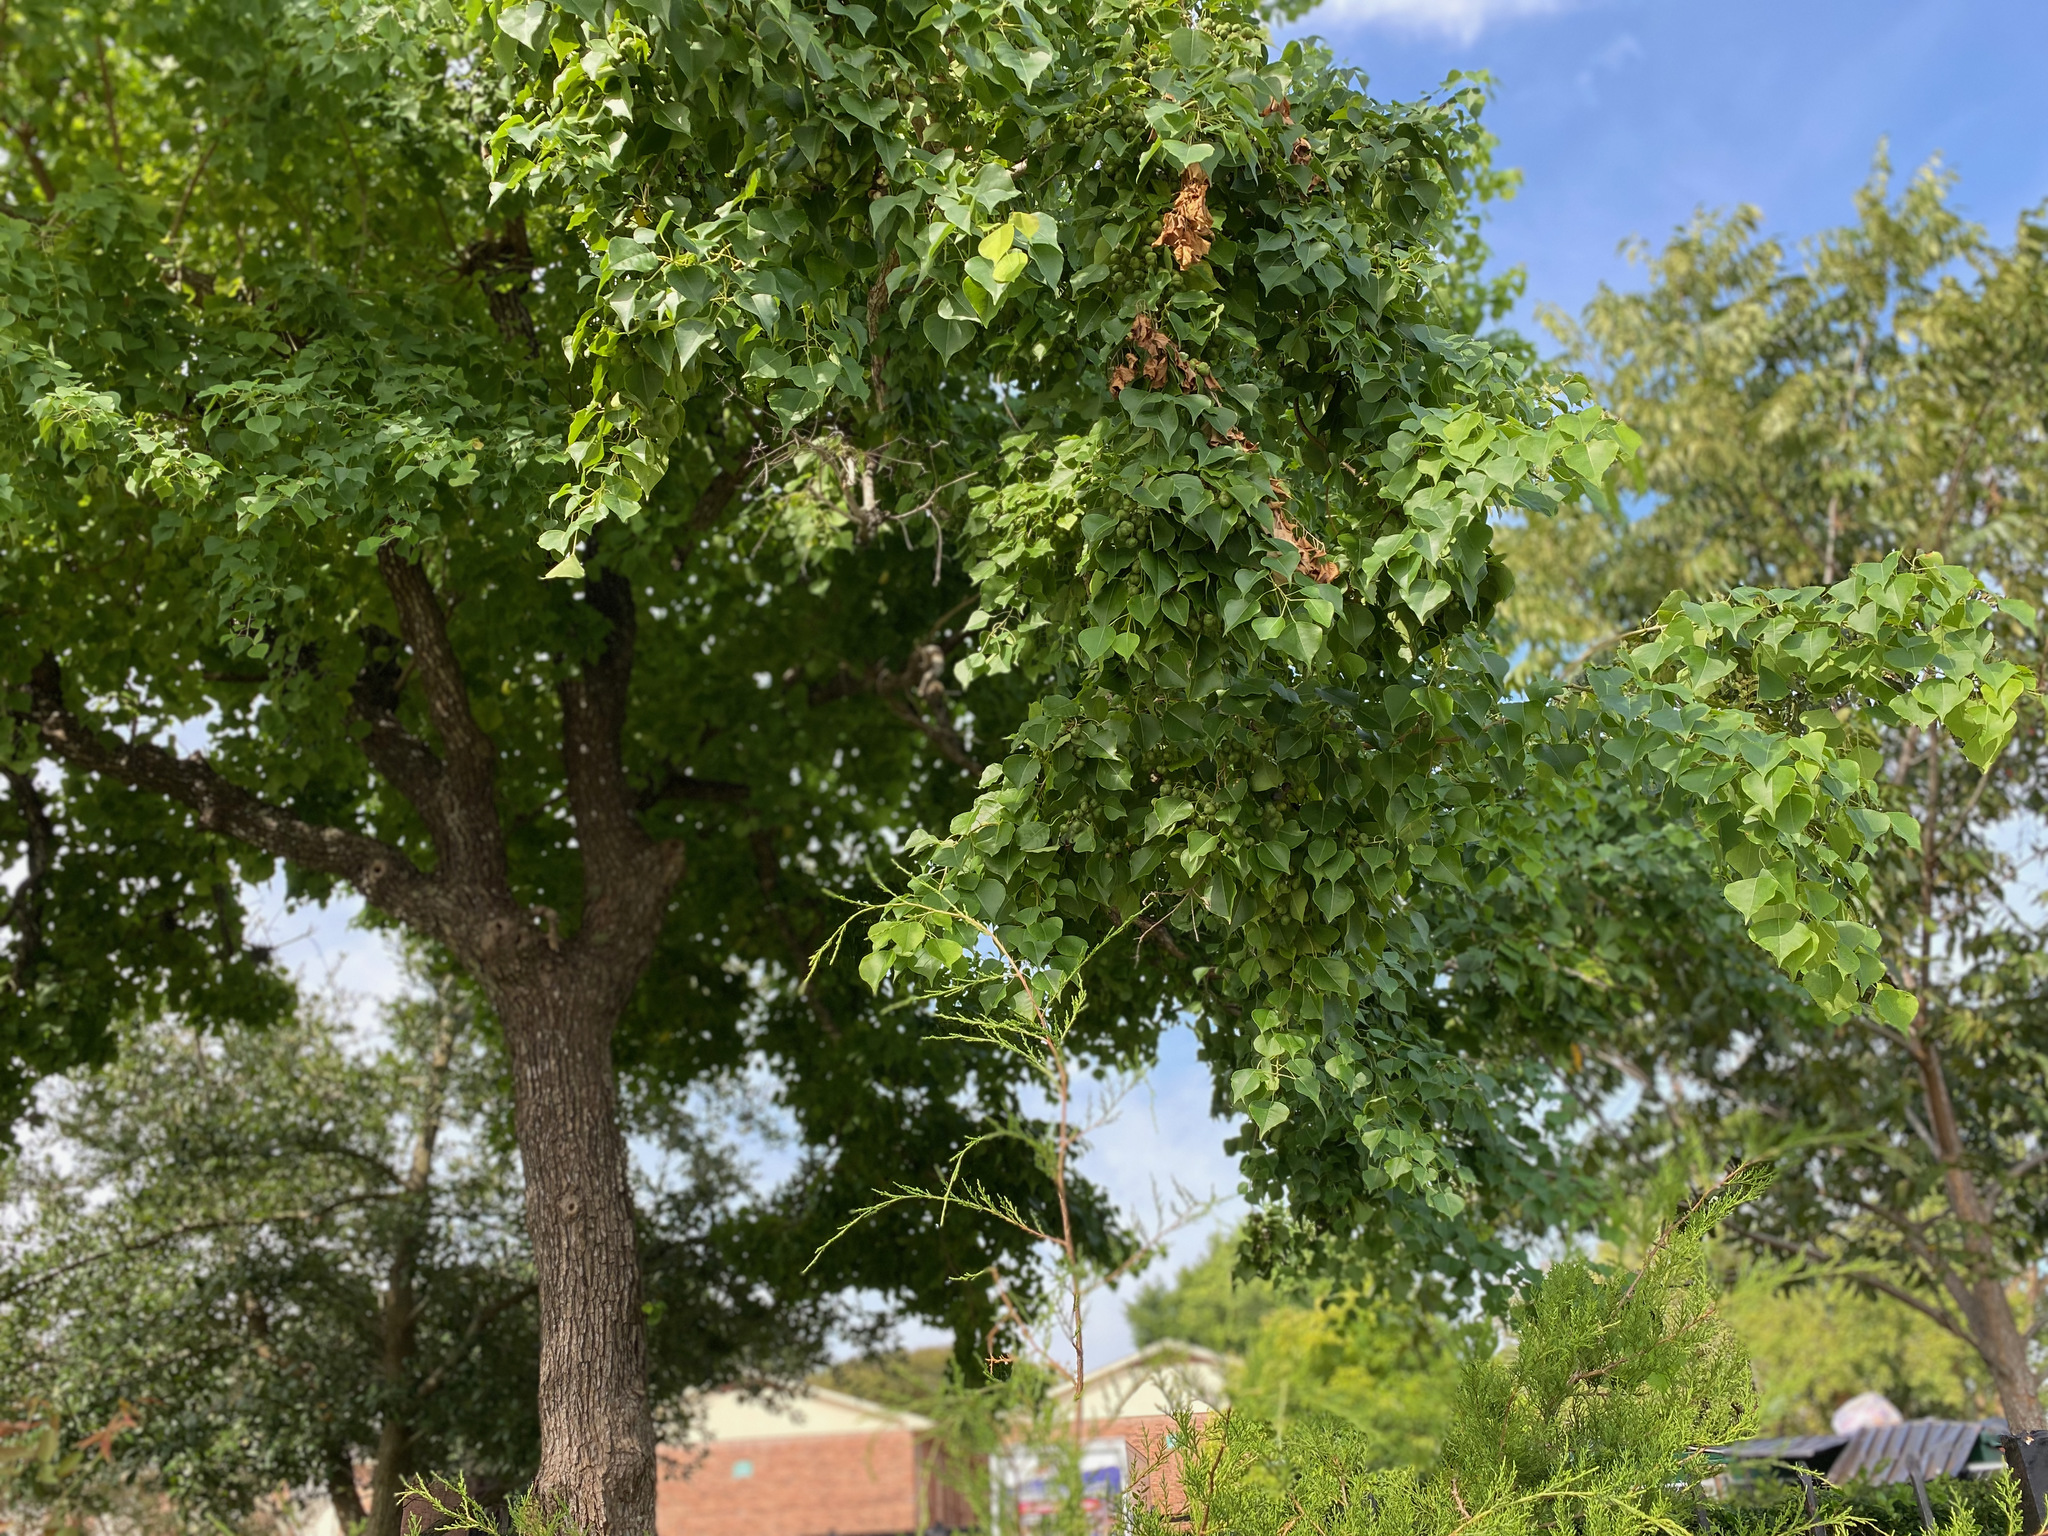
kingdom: Plantae
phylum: Tracheophyta
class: Magnoliopsida
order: Malpighiales
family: Euphorbiaceae
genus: Triadica
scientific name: Triadica sebifera
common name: Chinese tallow
